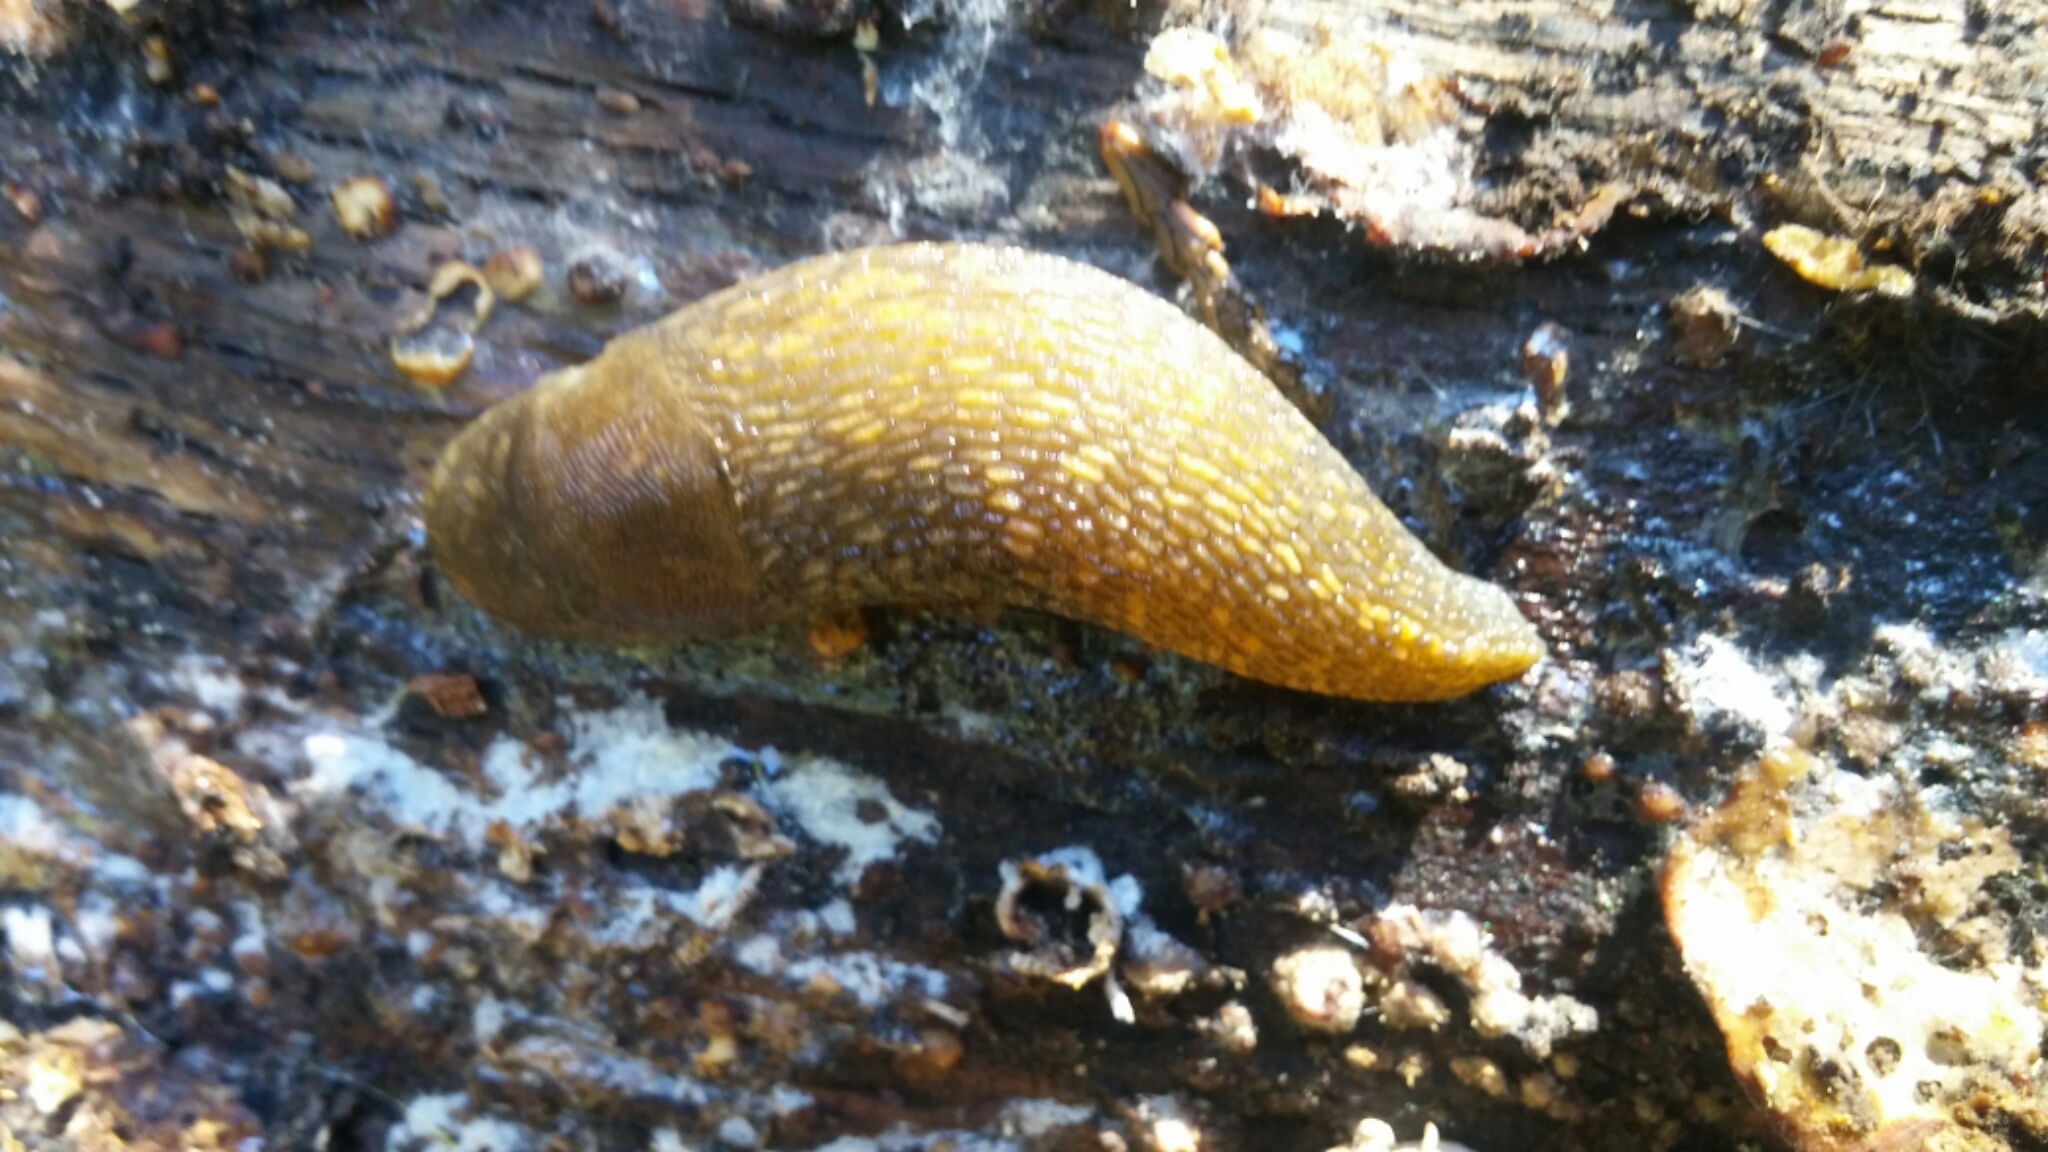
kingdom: Animalia
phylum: Mollusca
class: Gastropoda
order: Stylommatophora
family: Limacidae
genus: Limacus
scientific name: Limacus flavus
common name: Yellow gardenslug
